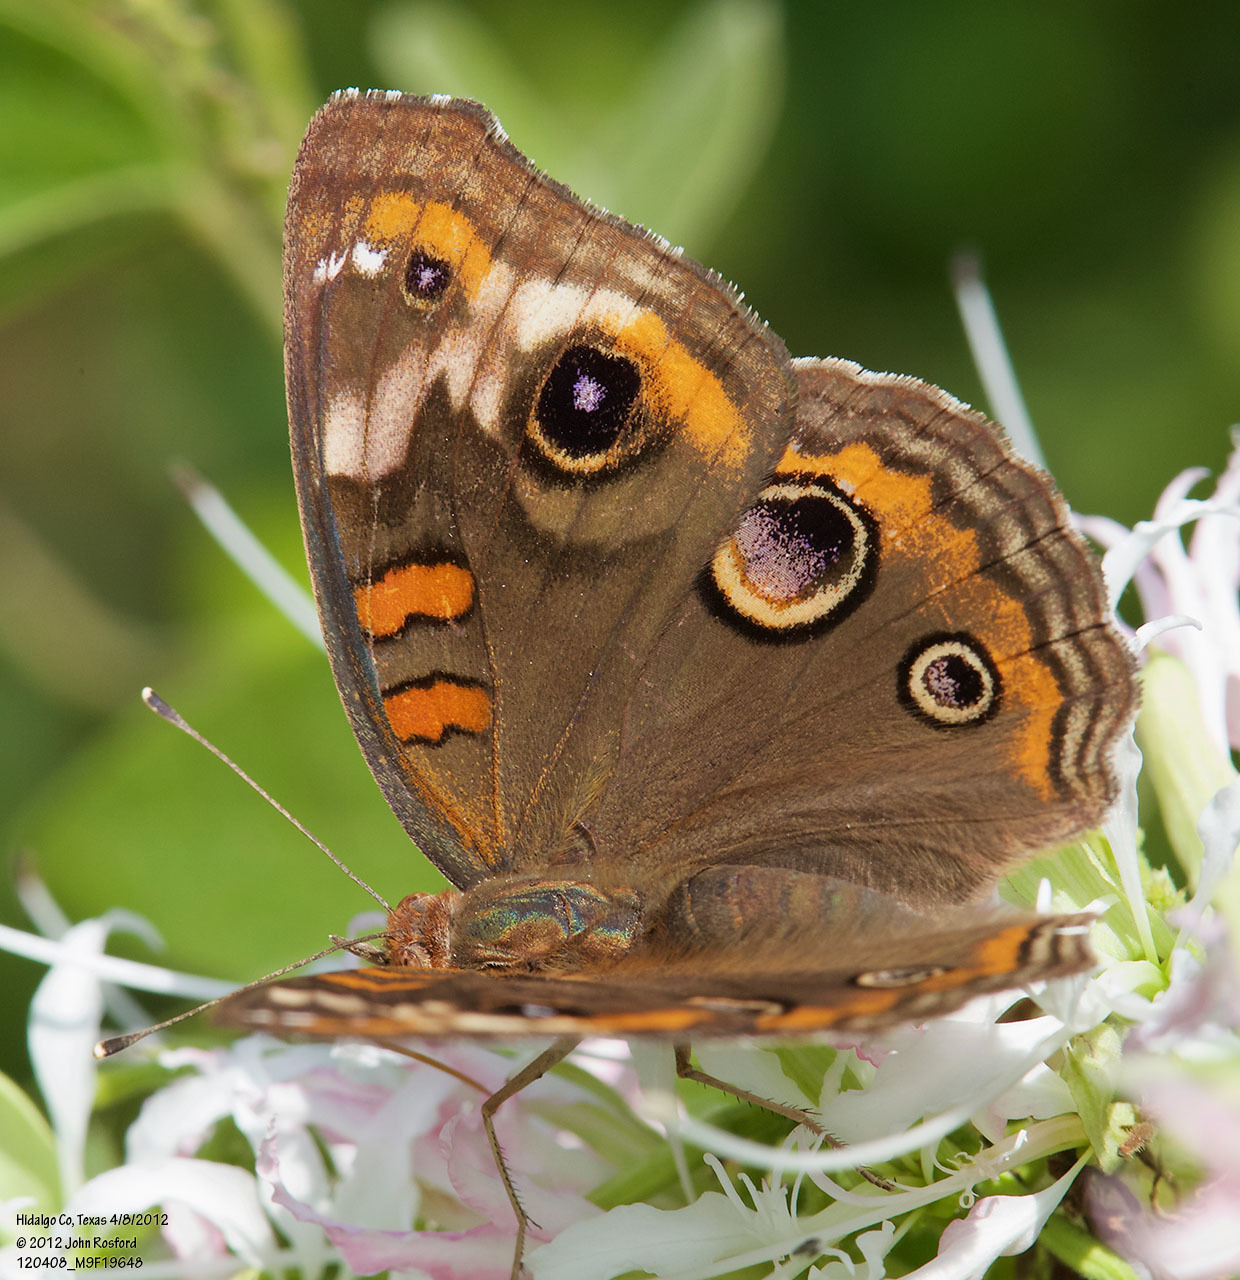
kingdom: Animalia
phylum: Arthropoda
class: Insecta
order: Lepidoptera
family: Nymphalidae
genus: Junonia
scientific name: Junonia coenia
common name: Common buckeye
